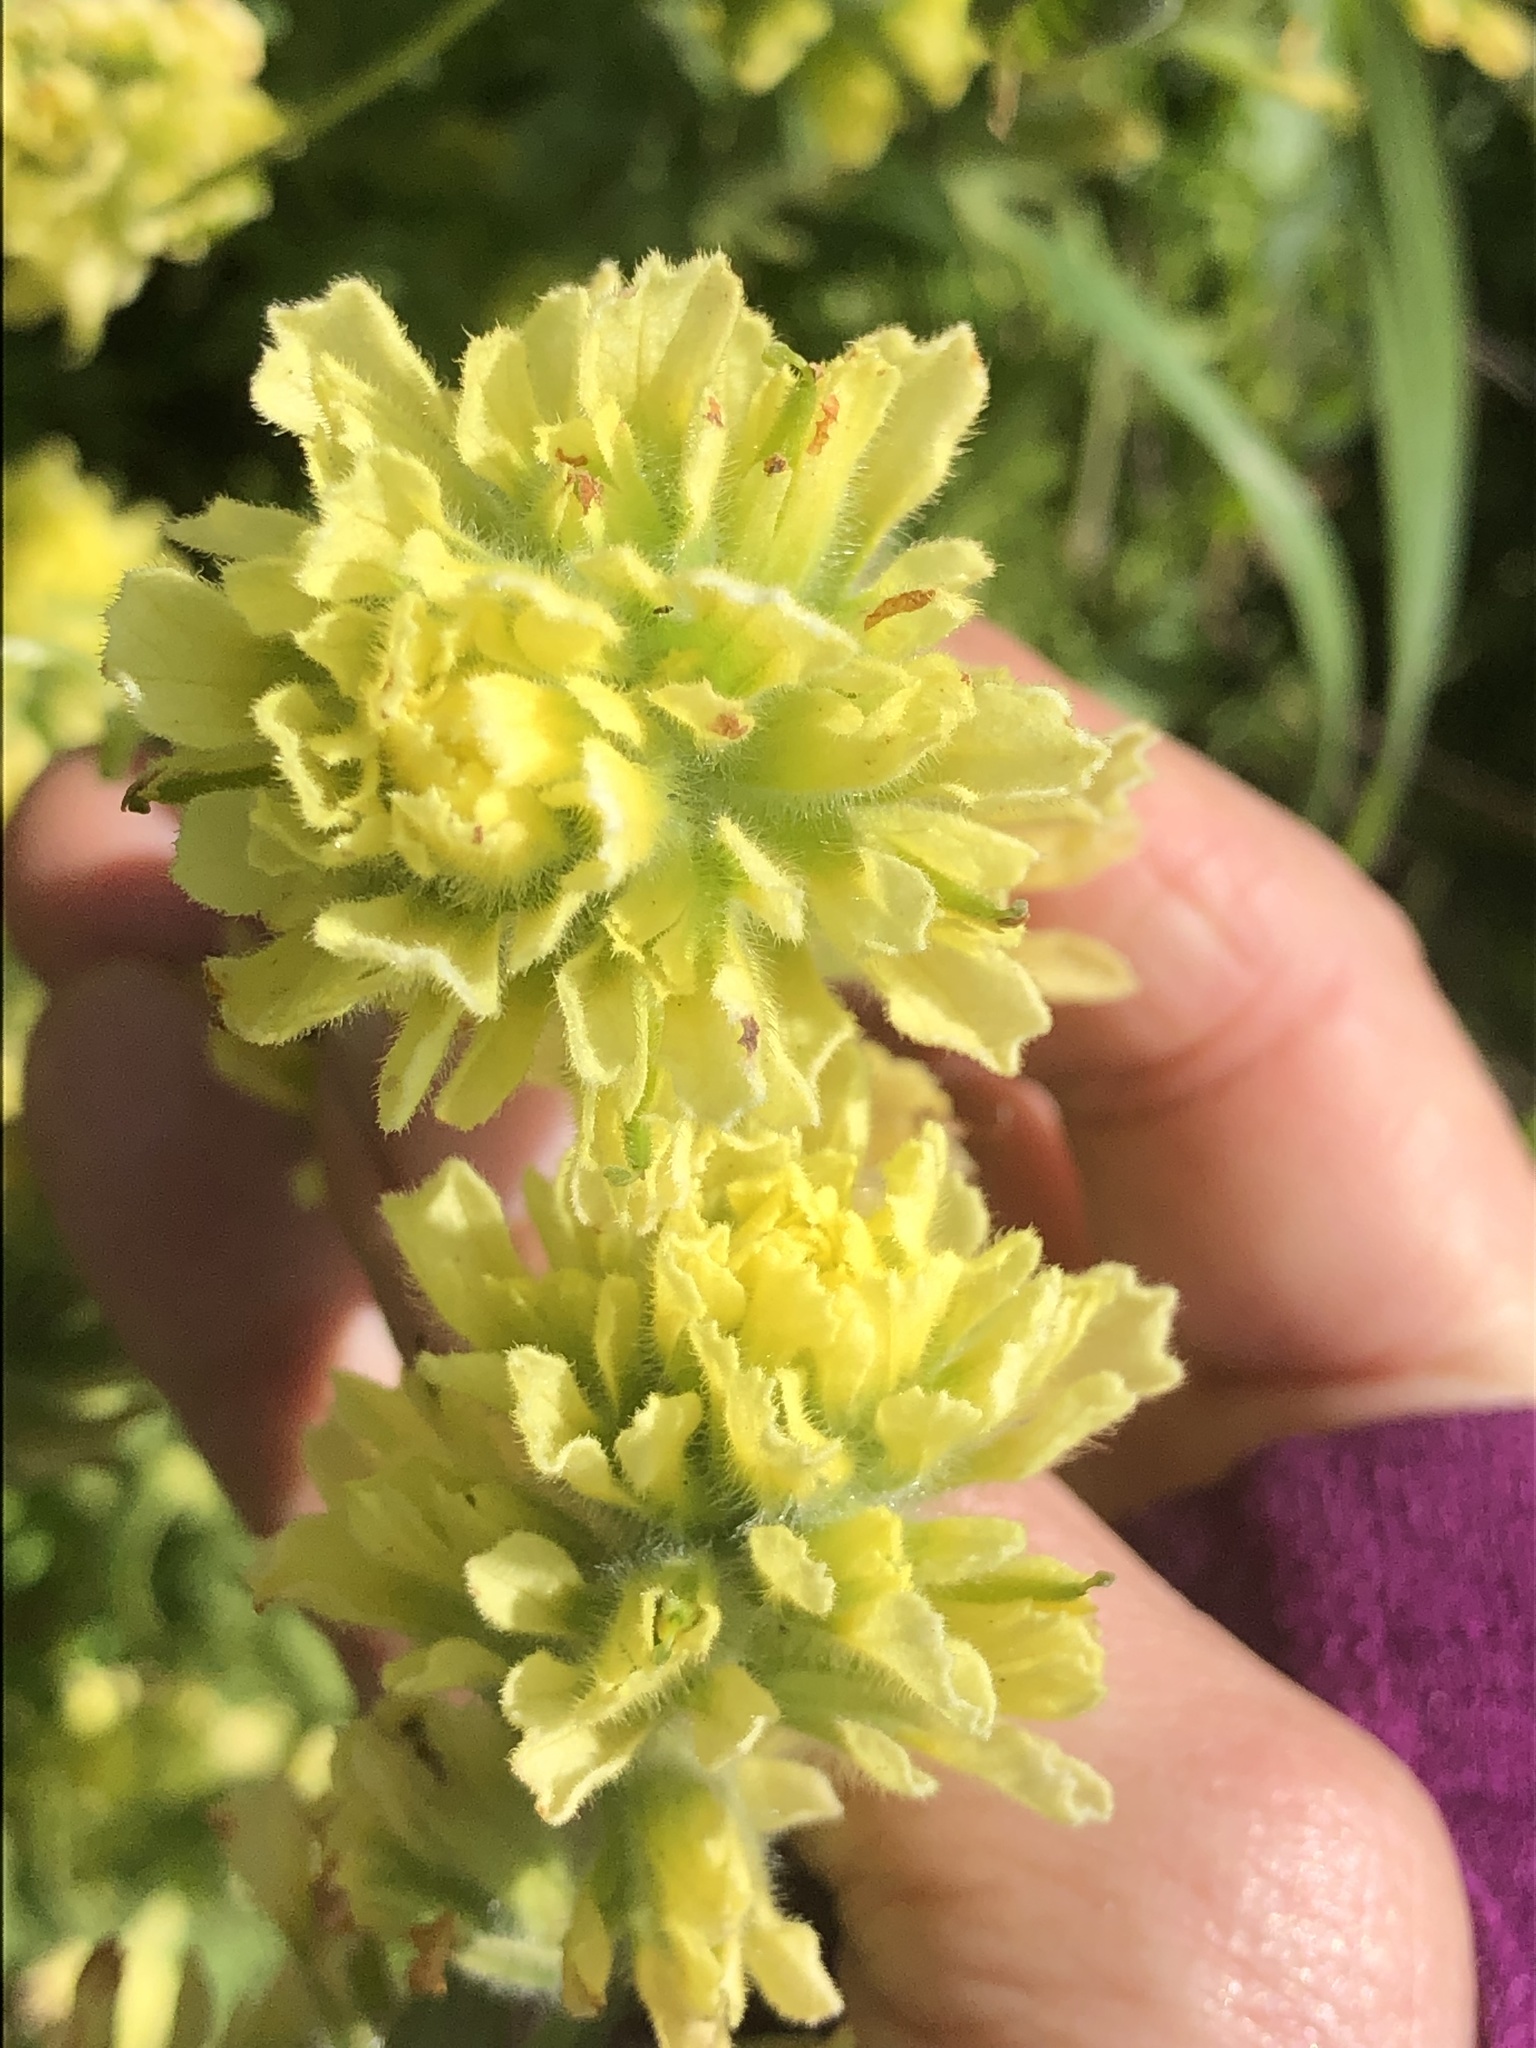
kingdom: Plantae
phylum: Tracheophyta
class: Magnoliopsida
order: Lamiales
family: Orobanchaceae
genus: Castilleja
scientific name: Castilleja wightii
